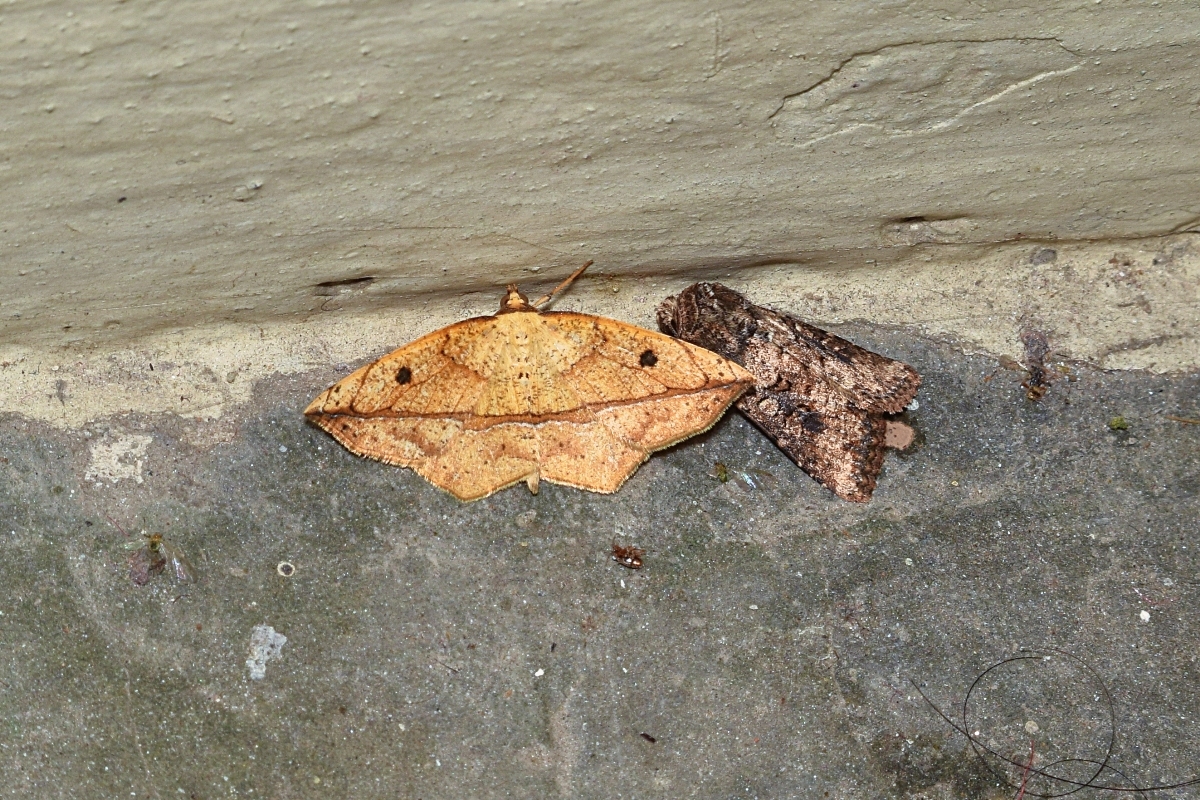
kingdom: Animalia
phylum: Arthropoda
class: Insecta
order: Lepidoptera
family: Geometridae
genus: Entomopteryx
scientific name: Entomopteryx obliquilinea
